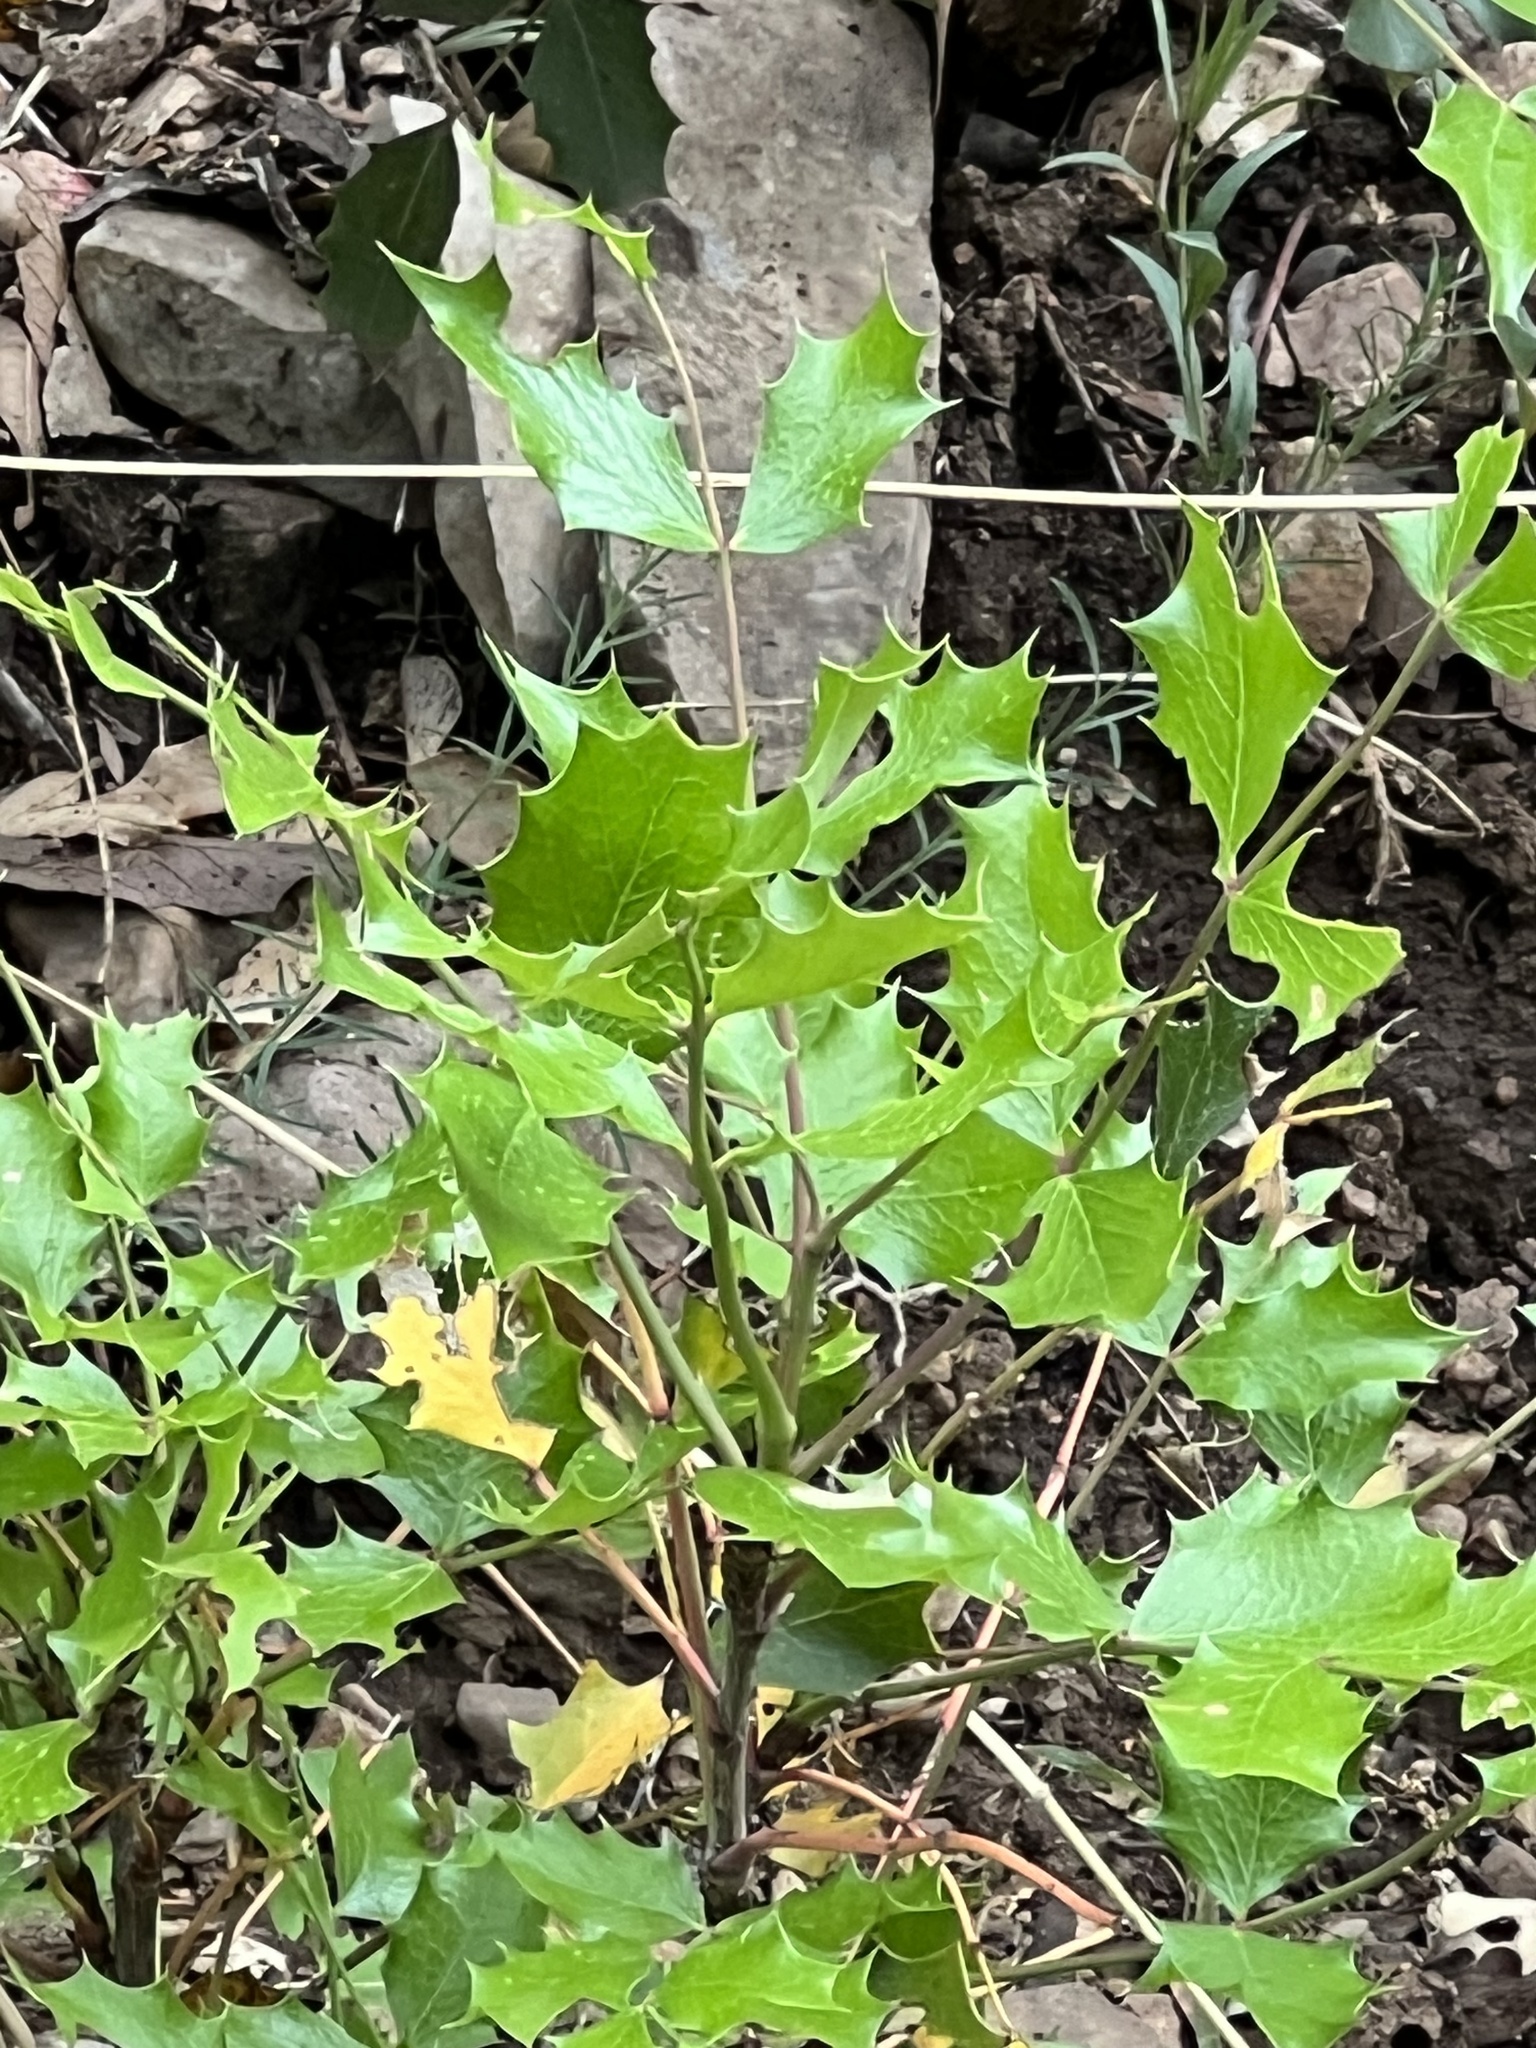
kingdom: Plantae
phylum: Tracheophyta
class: Magnoliopsida
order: Ranunculales
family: Berberidaceae
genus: Mahonia
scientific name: Mahonia wilcoxii
